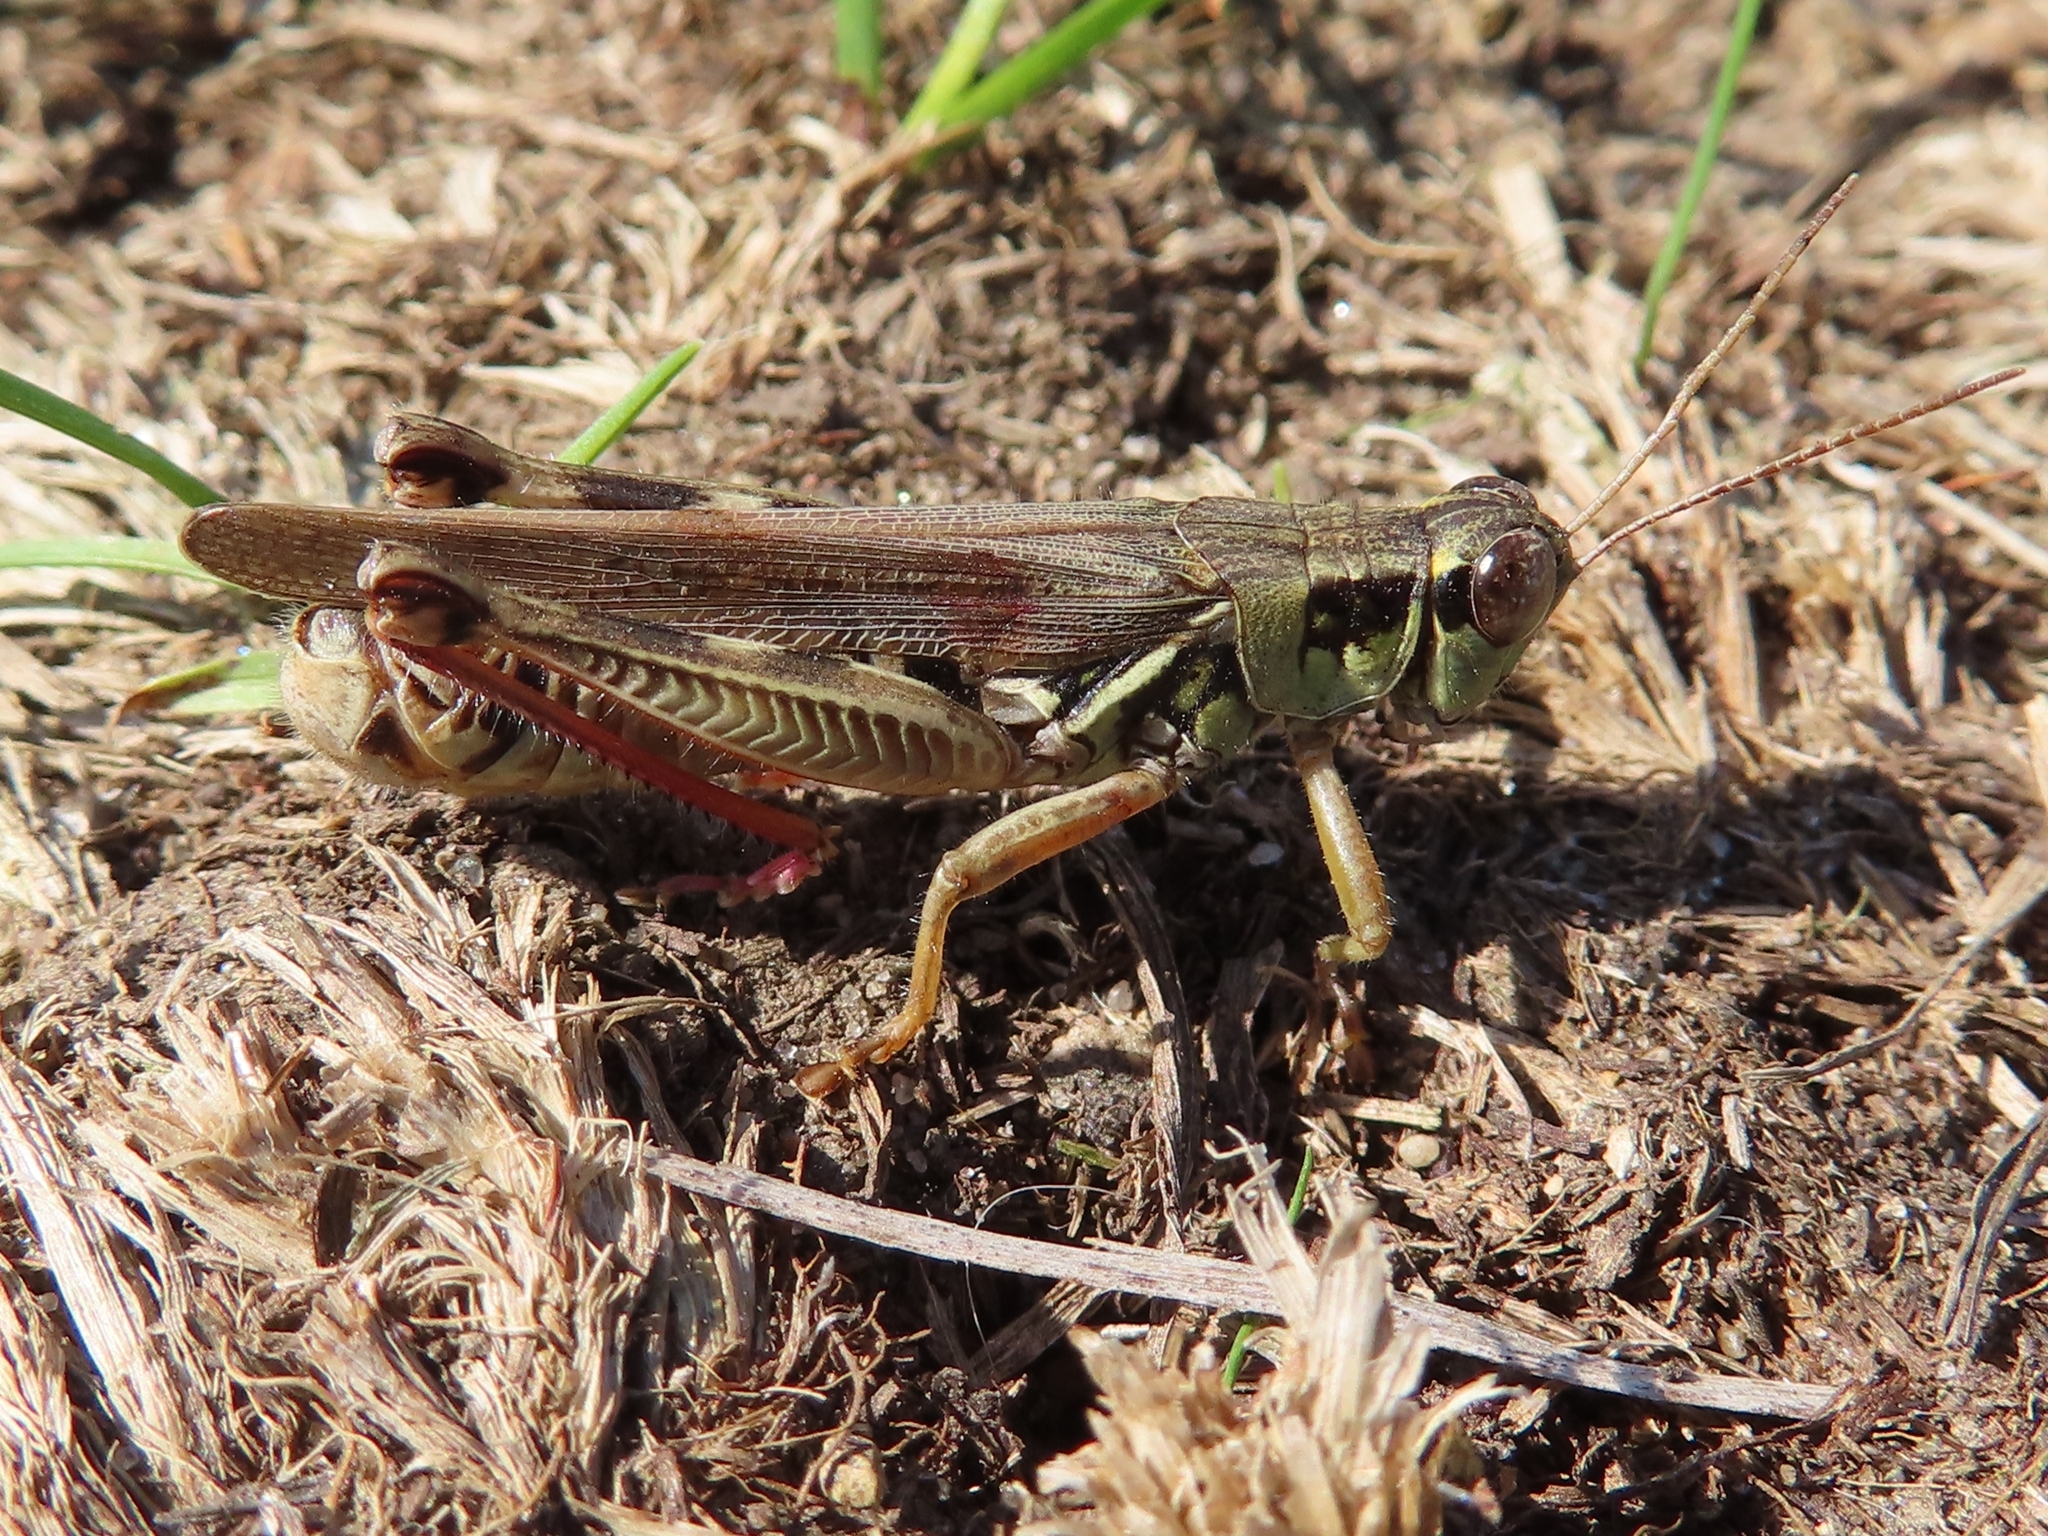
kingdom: Animalia
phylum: Arthropoda
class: Insecta
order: Orthoptera
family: Acrididae
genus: Melanoplus
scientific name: Melanoplus femurrubrum
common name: Red-legged grasshopper
